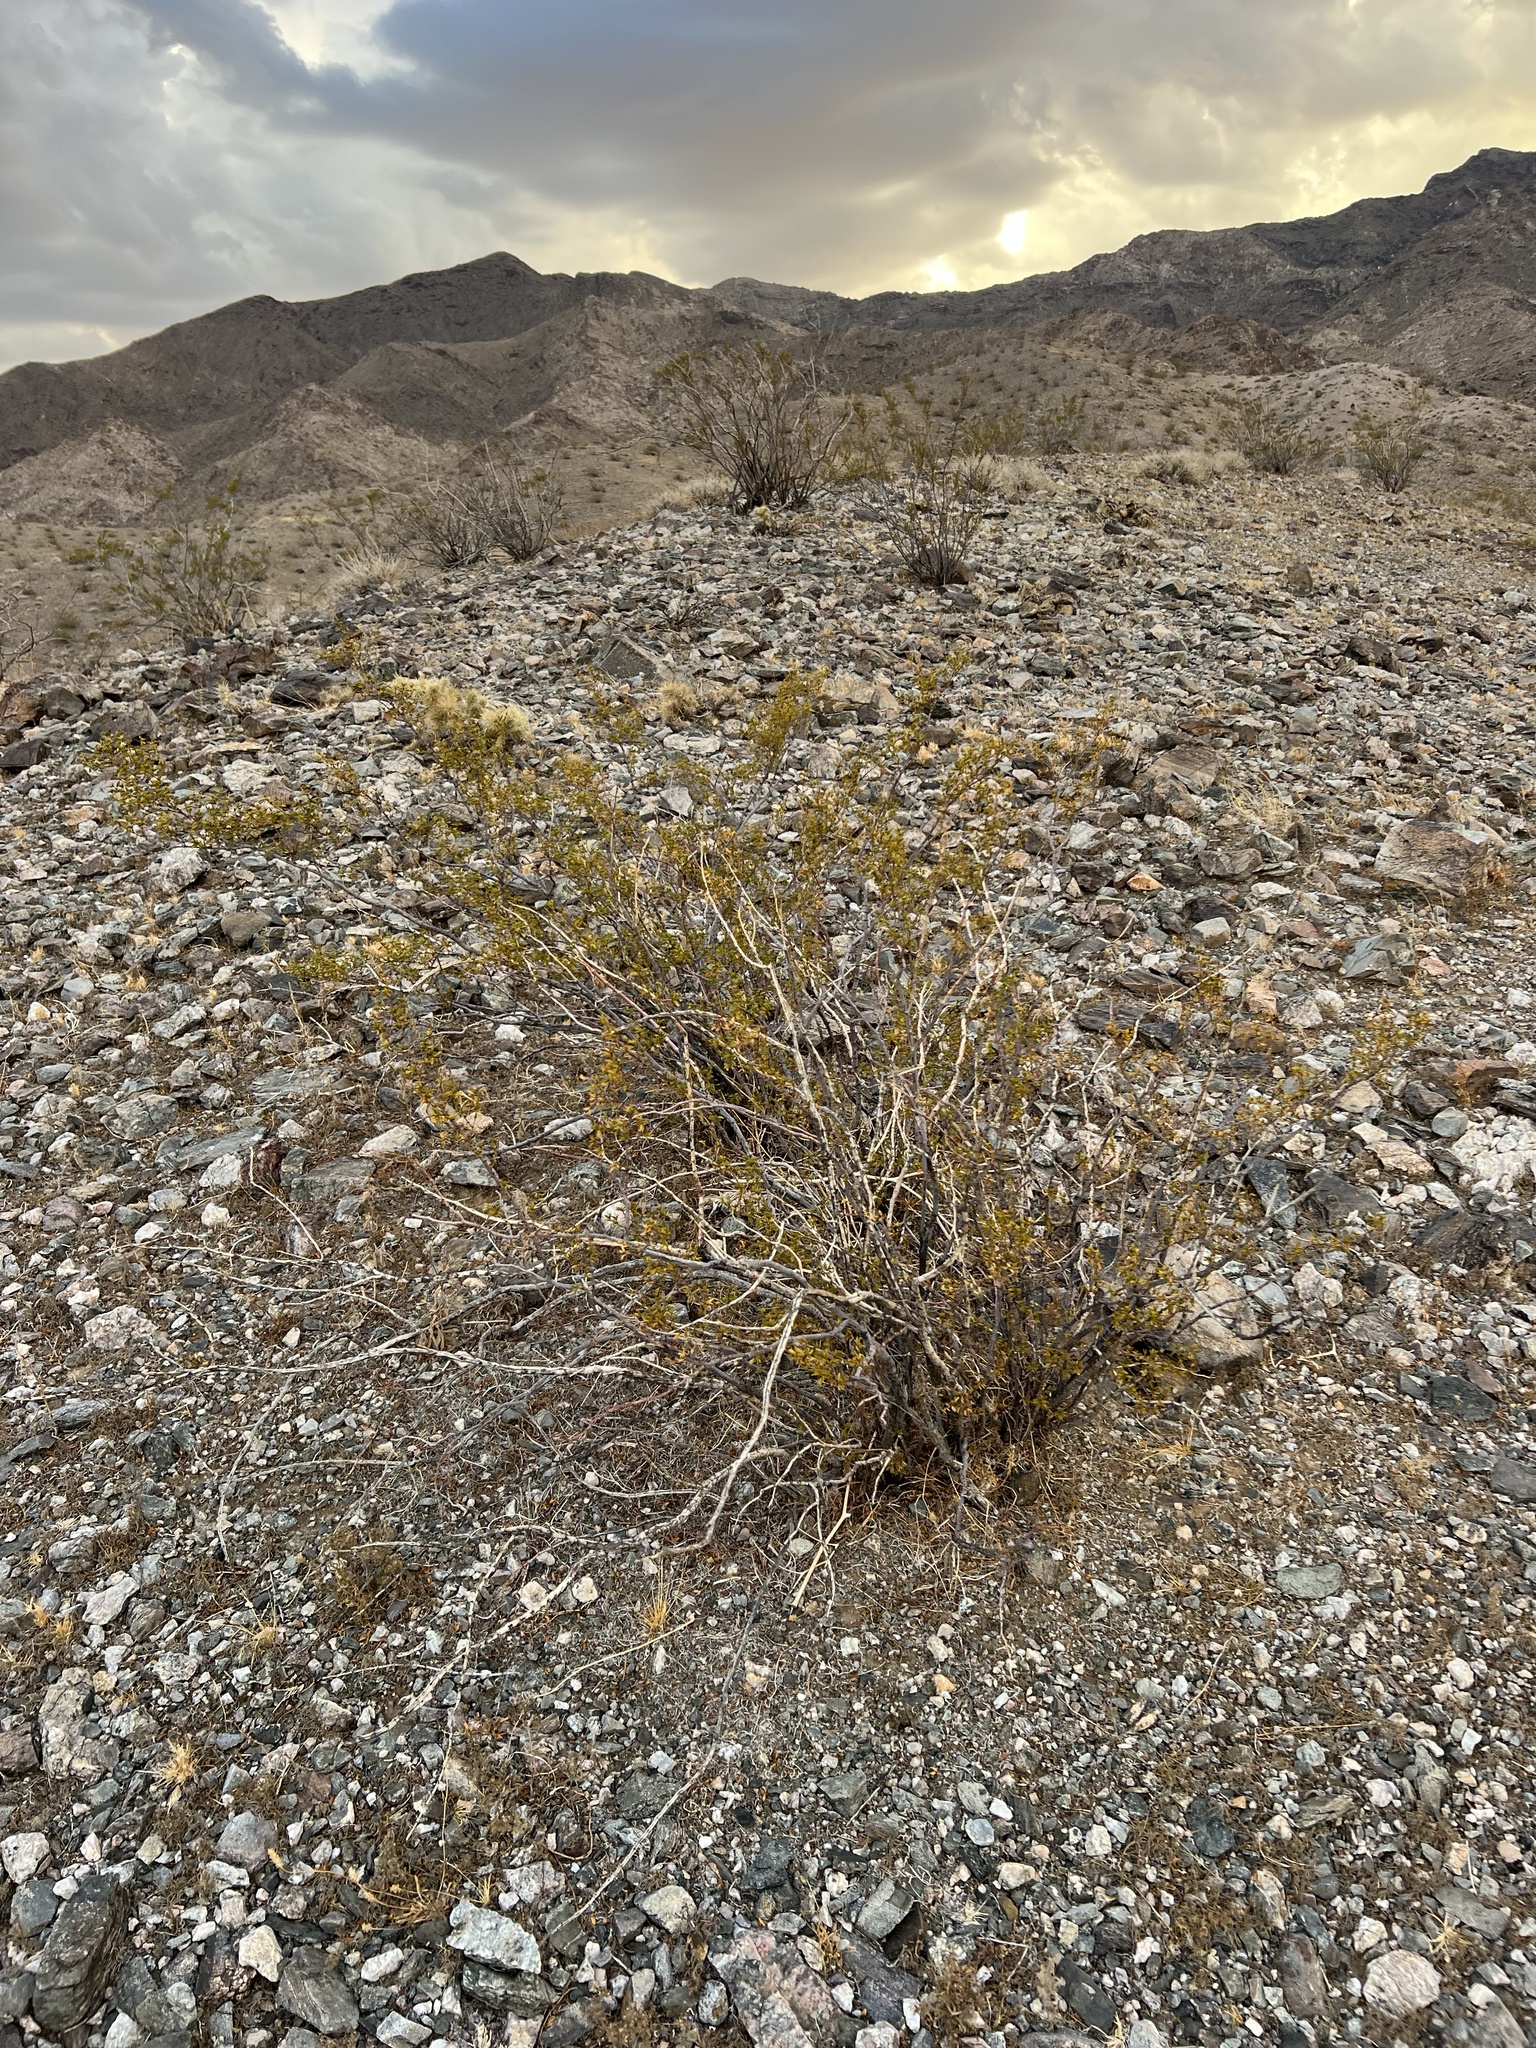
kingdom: Plantae
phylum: Tracheophyta
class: Magnoliopsida
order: Zygophyllales
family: Zygophyllaceae
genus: Larrea
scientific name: Larrea tridentata
